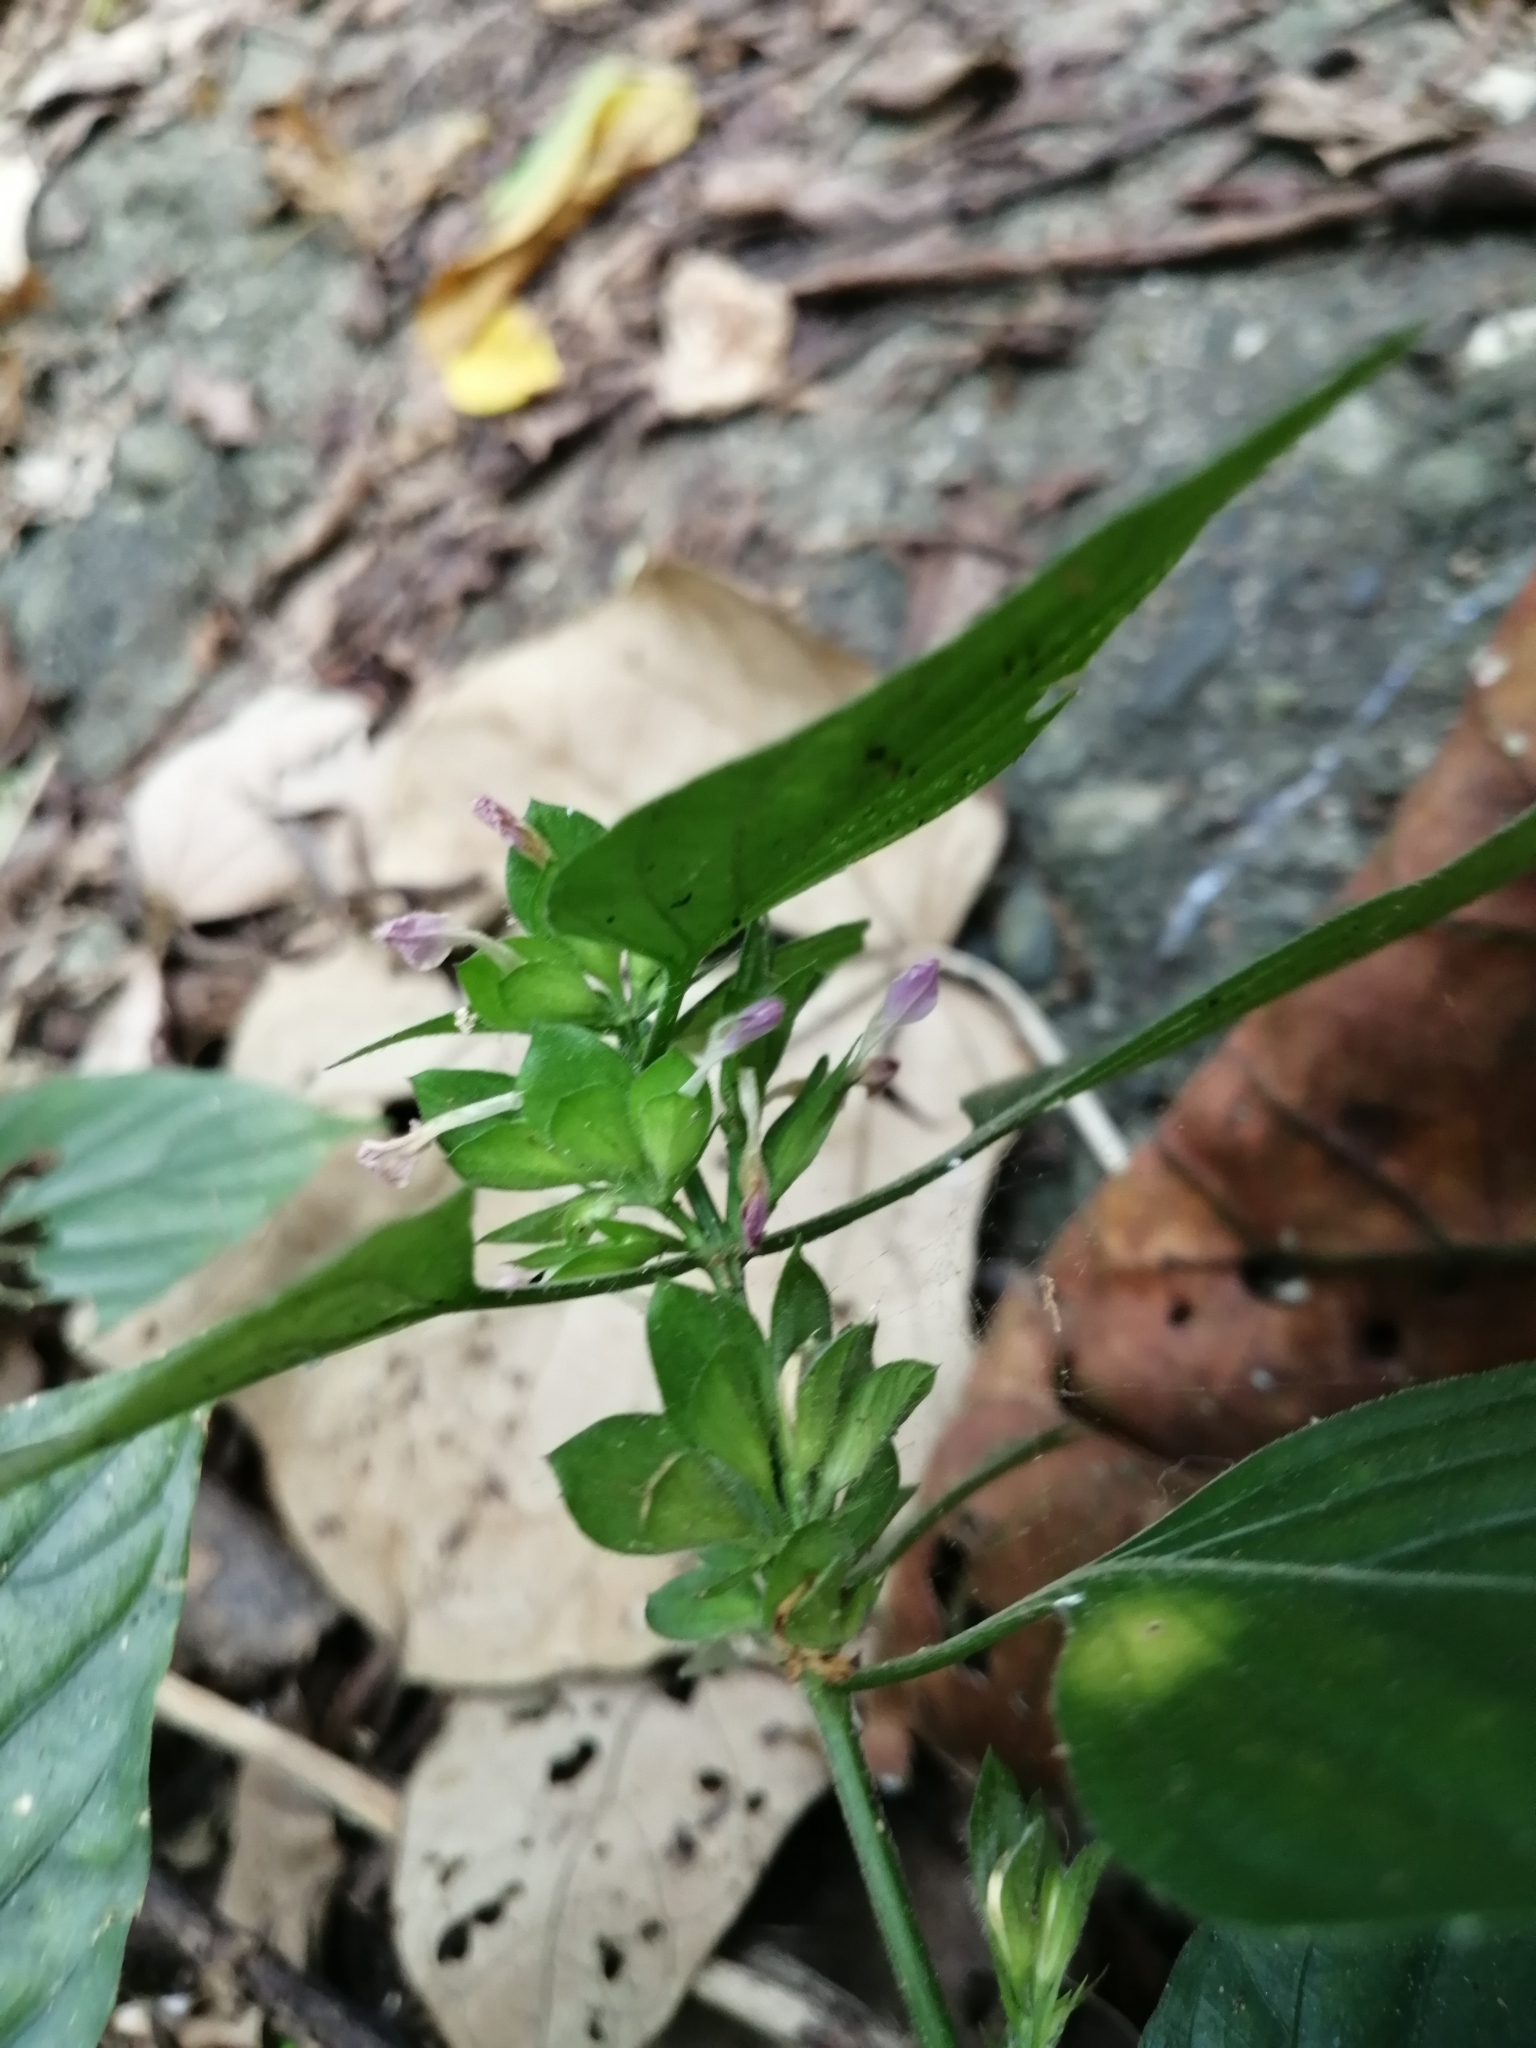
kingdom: Plantae
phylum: Tracheophyta
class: Magnoliopsida
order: Lamiales
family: Acanthaceae
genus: Dicliptera
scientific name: Dicliptera chinensis
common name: Chinese foldwing
